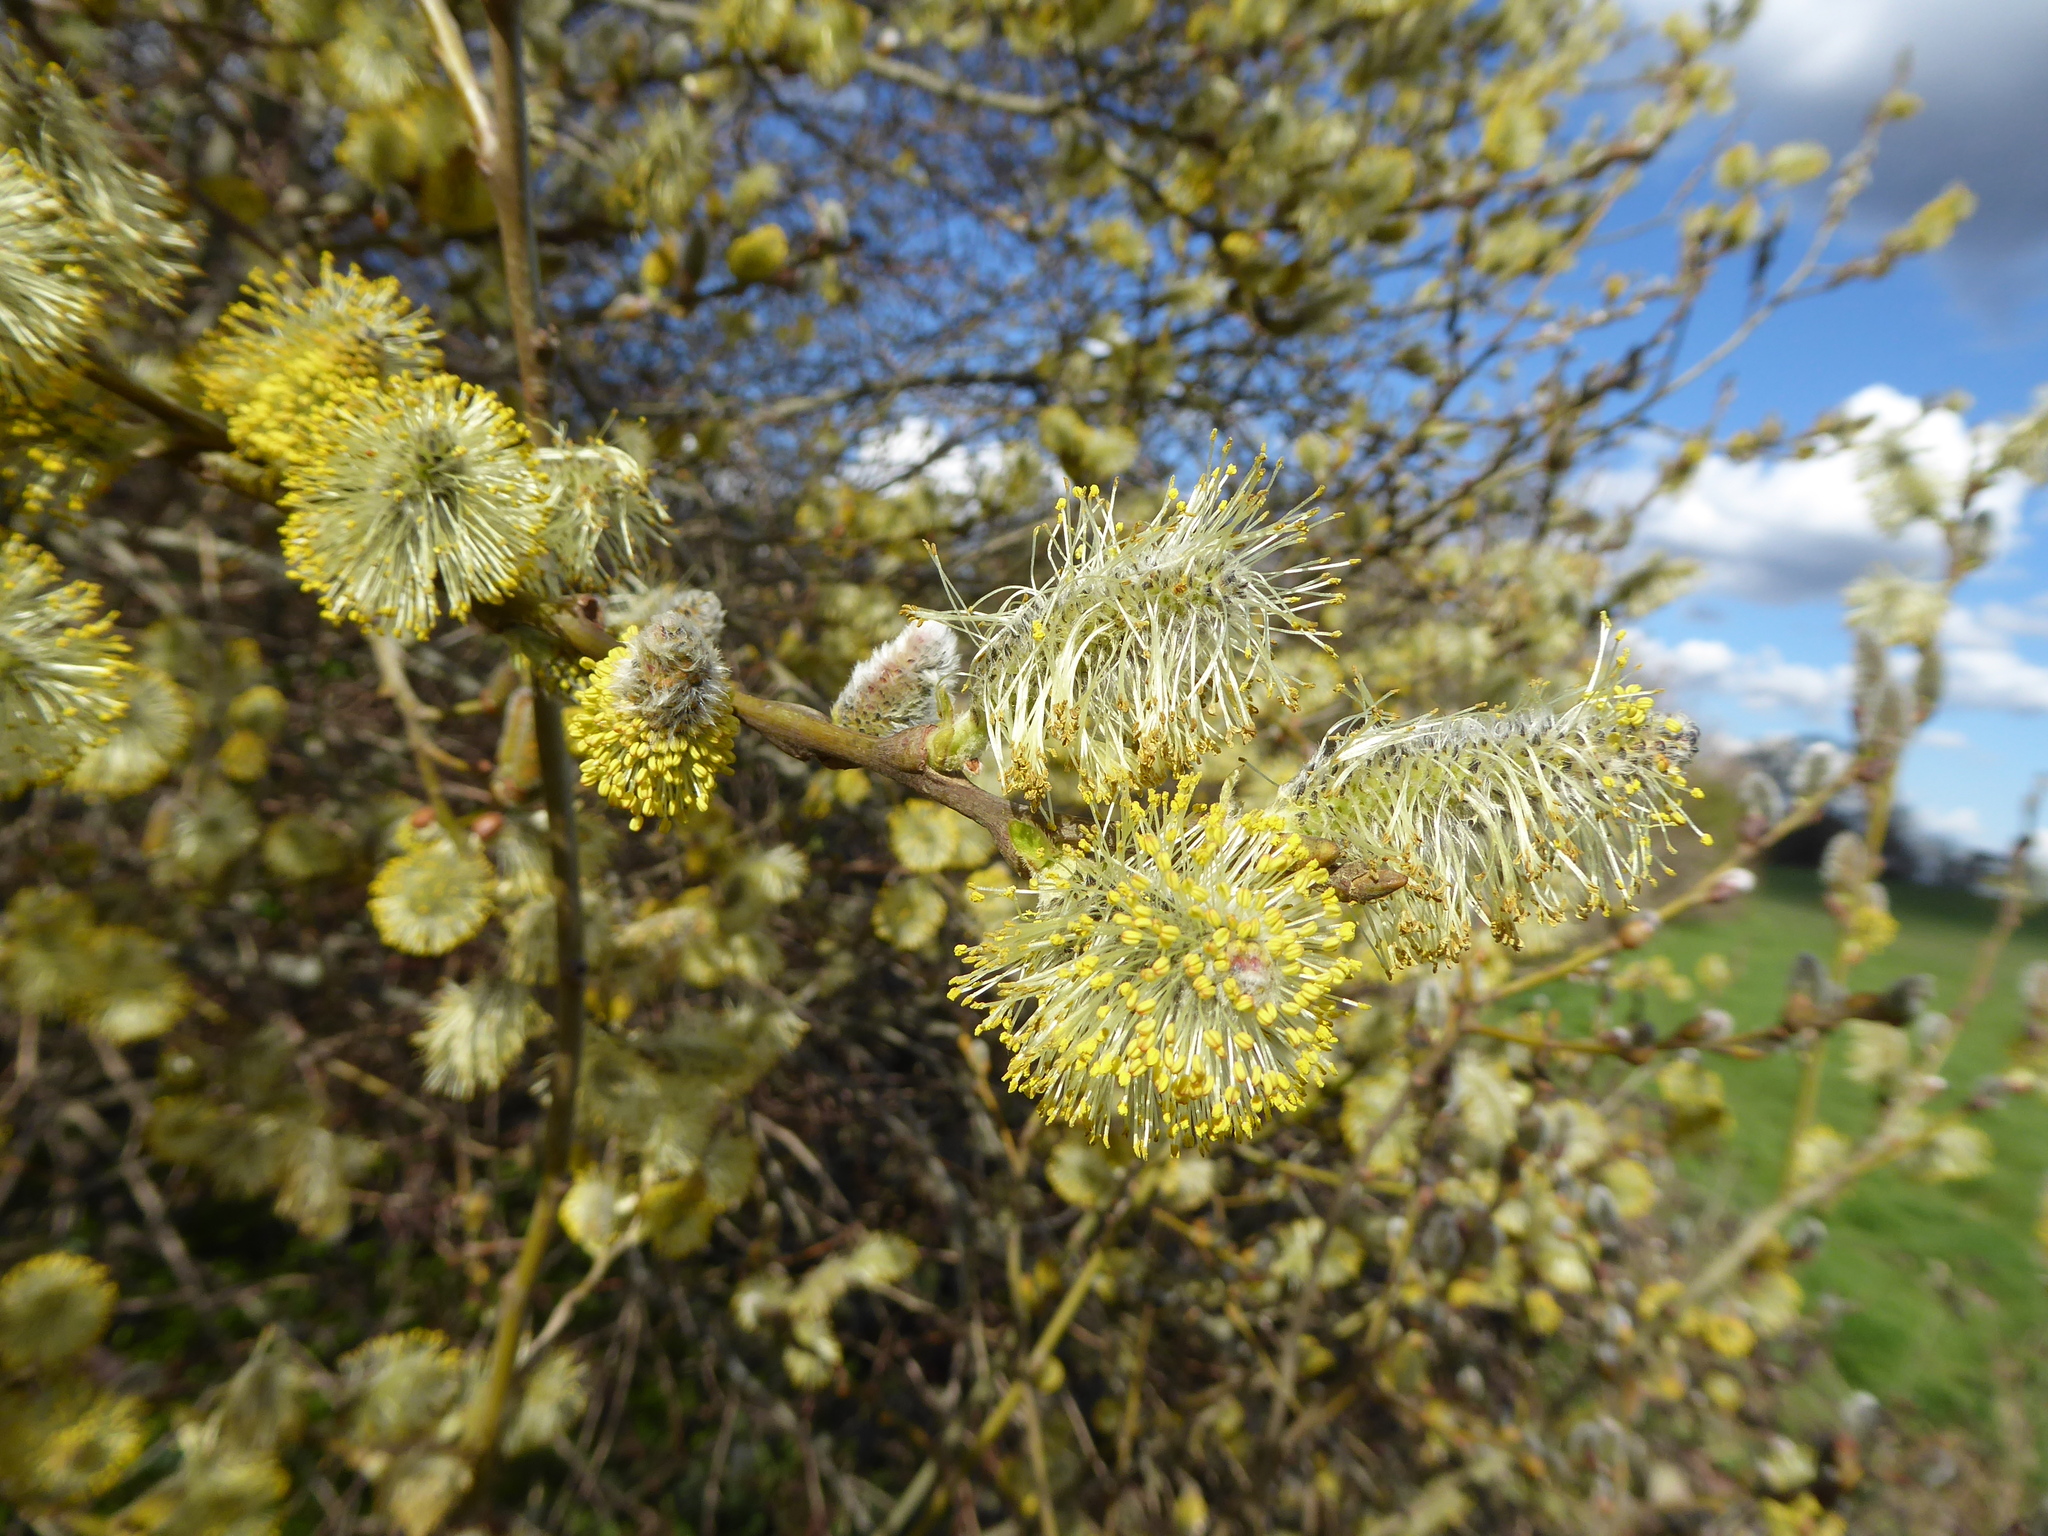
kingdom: Plantae
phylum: Tracheophyta
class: Magnoliopsida
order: Malpighiales
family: Salicaceae
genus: Salix
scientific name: Salix caprea
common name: Goat willow
